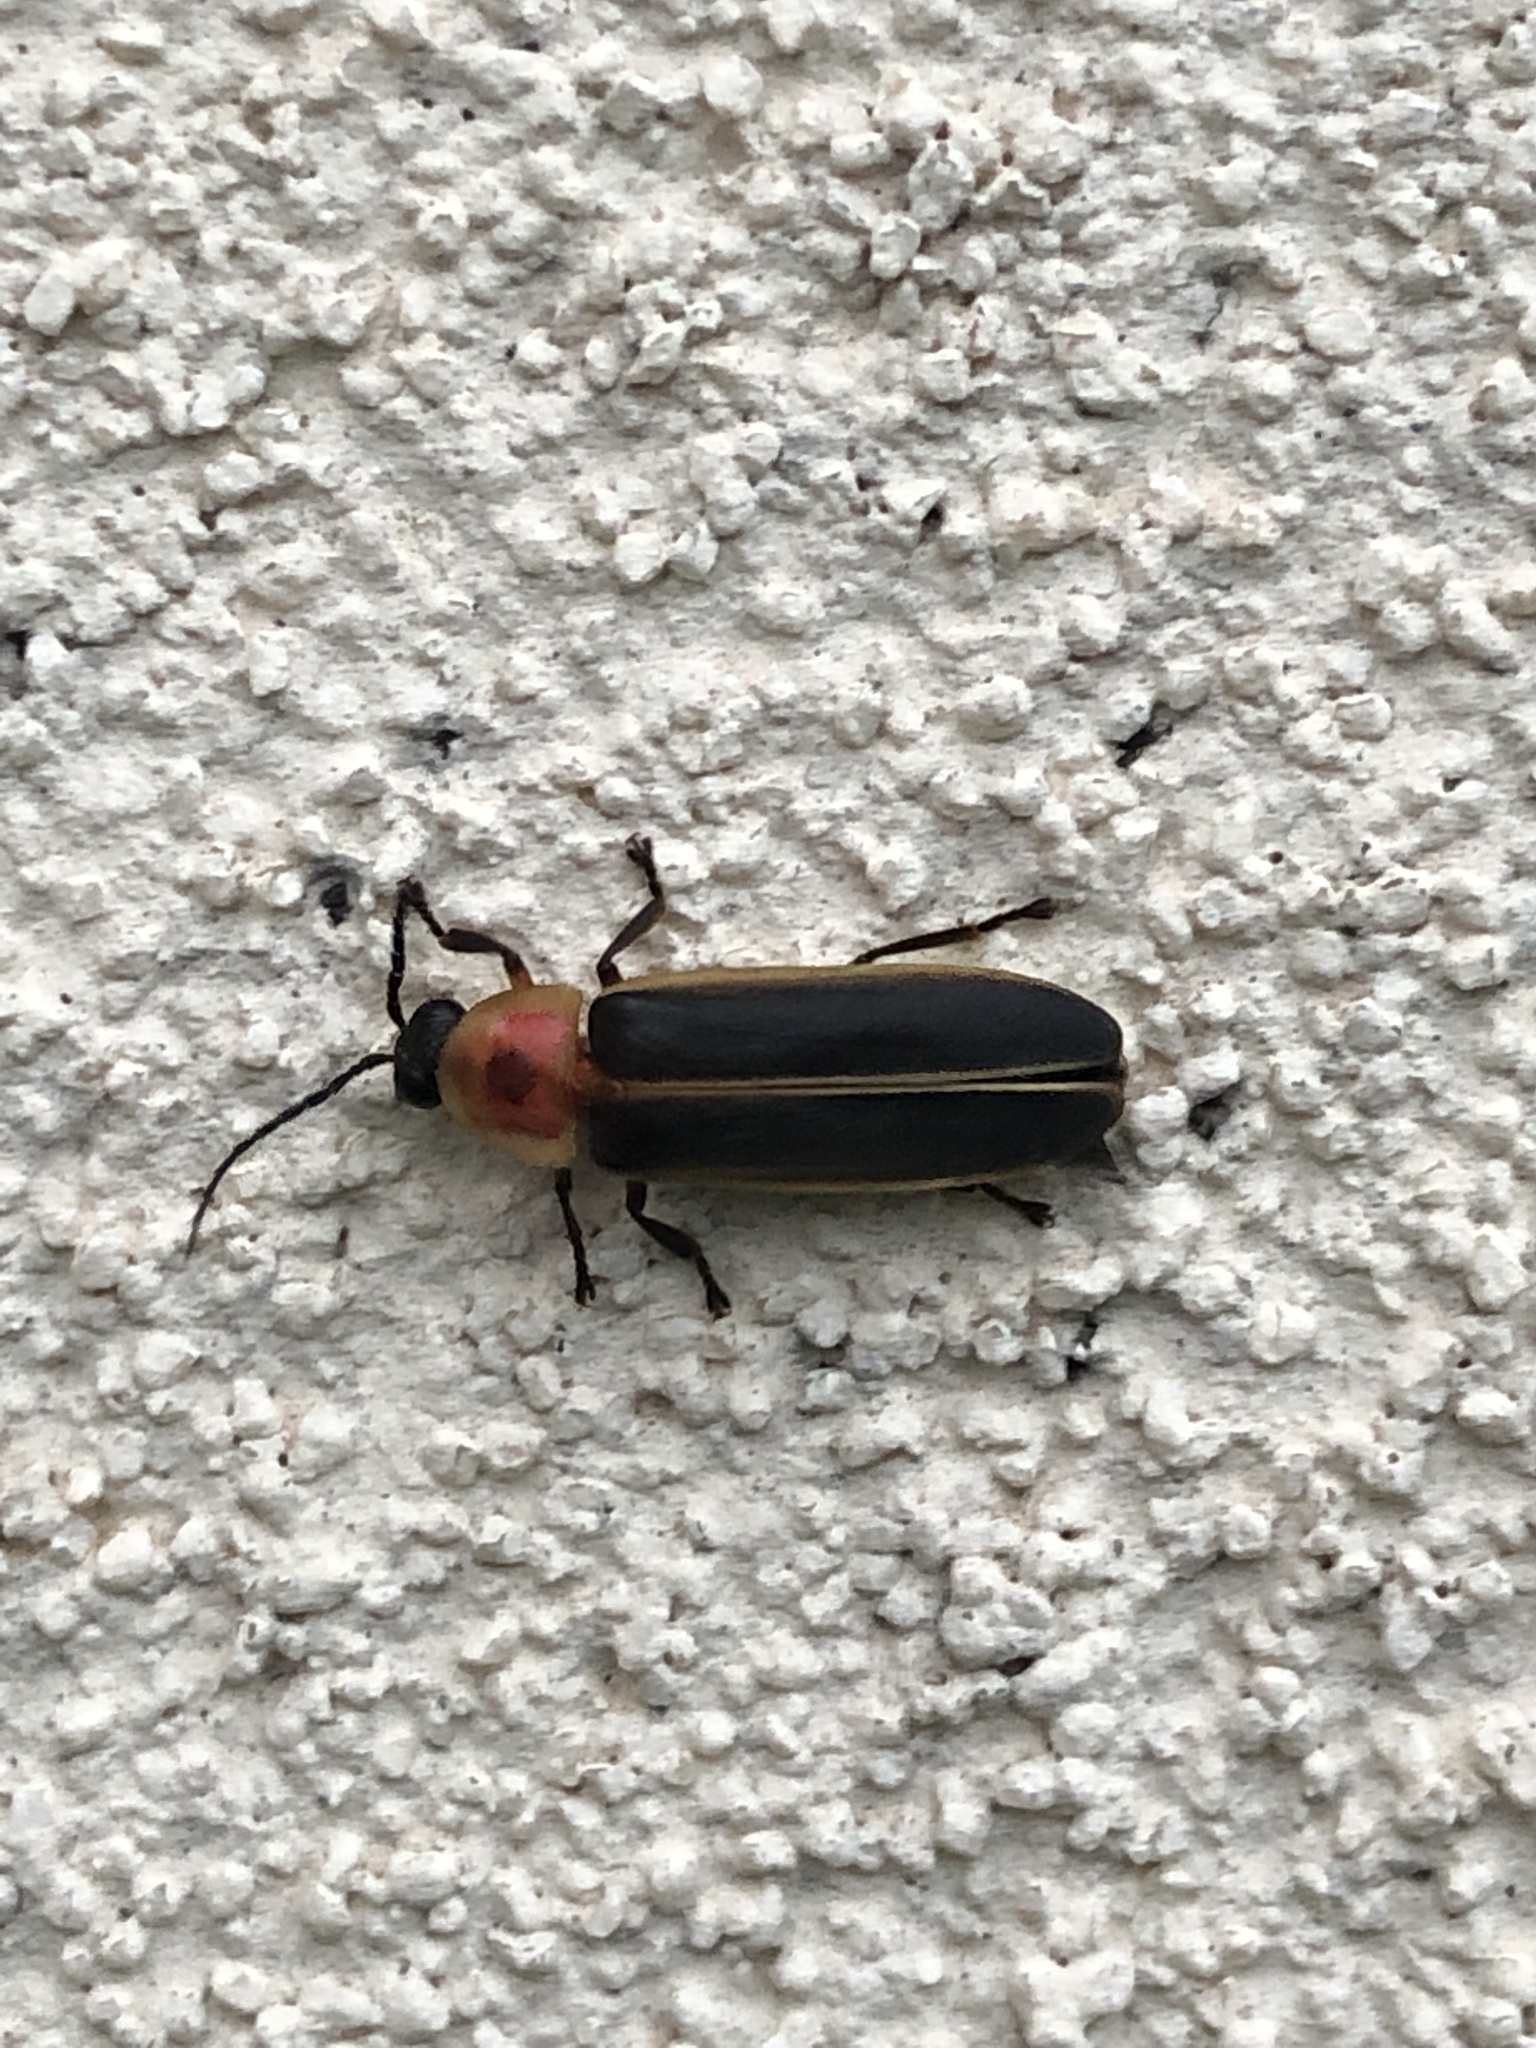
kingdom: Animalia
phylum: Arthropoda
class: Insecta
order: Coleoptera
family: Lampyridae
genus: Photinus
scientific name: Photinus pyralis
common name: Big dipper firefly
